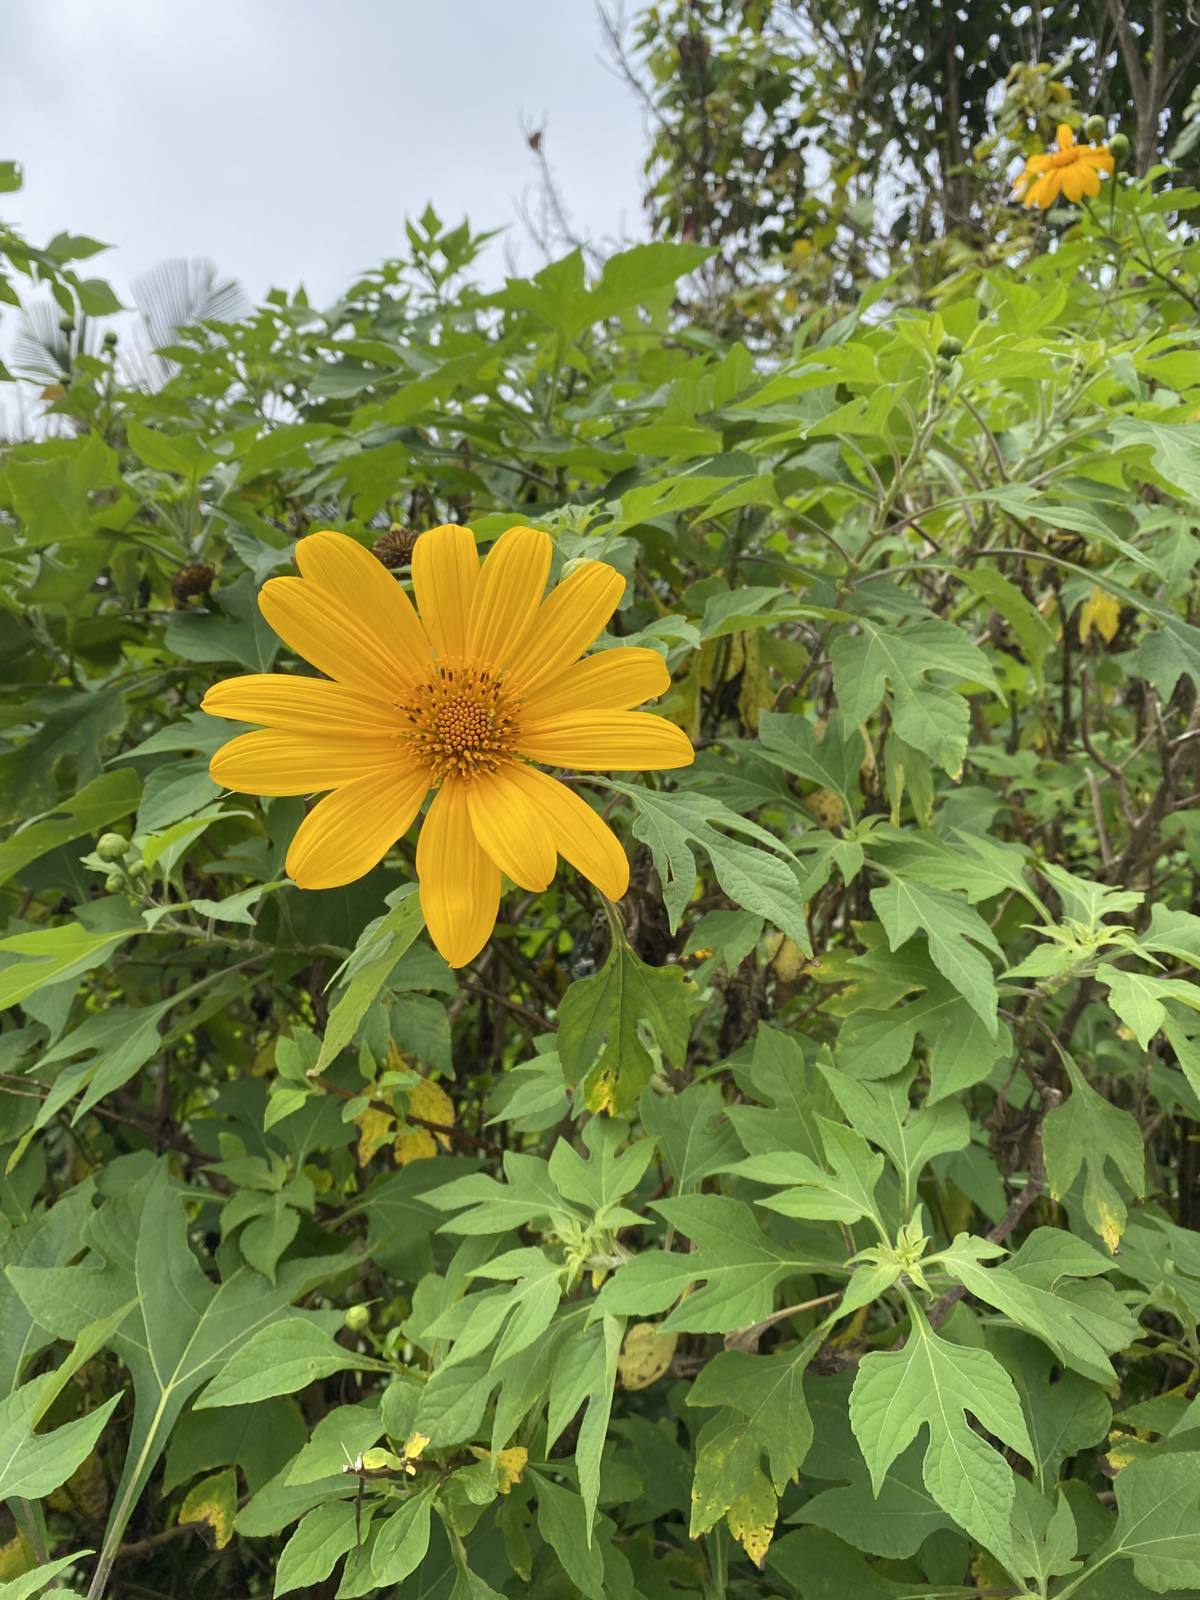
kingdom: Plantae
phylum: Tracheophyta
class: Magnoliopsida
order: Asterales
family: Asteraceae
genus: Tithonia
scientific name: Tithonia diversifolia
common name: Tree marigold
